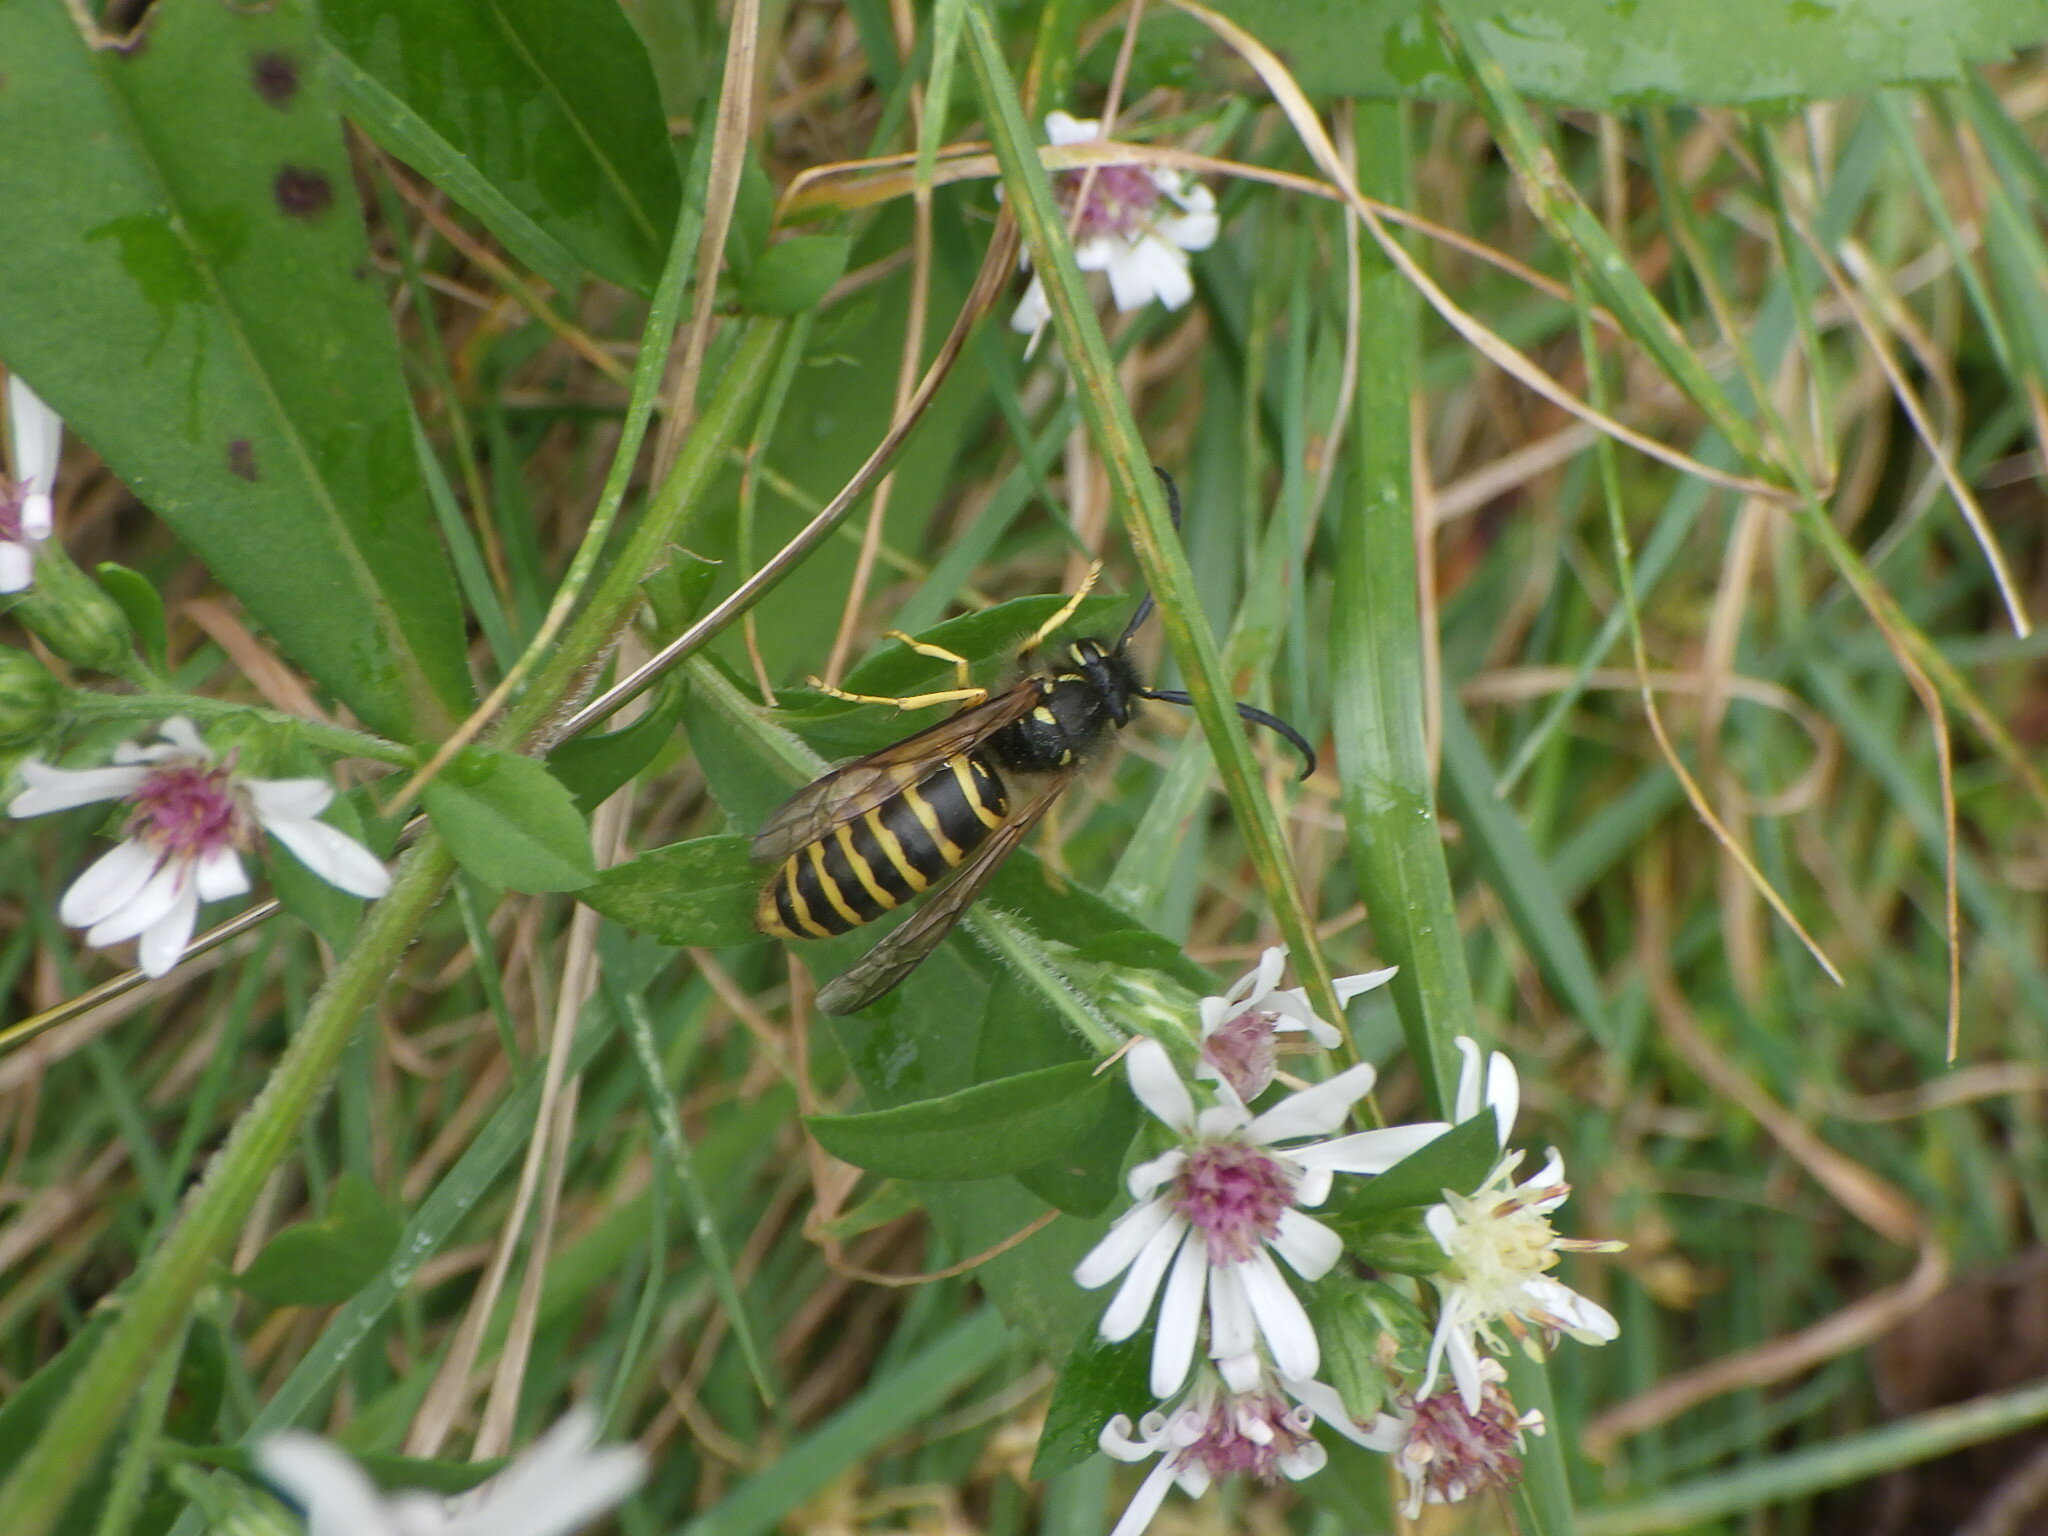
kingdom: Animalia
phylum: Arthropoda
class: Insecta
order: Hymenoptera
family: Vespidae
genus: Vespula
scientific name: Vespula maculifrons
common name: Eastern yellowjacket
